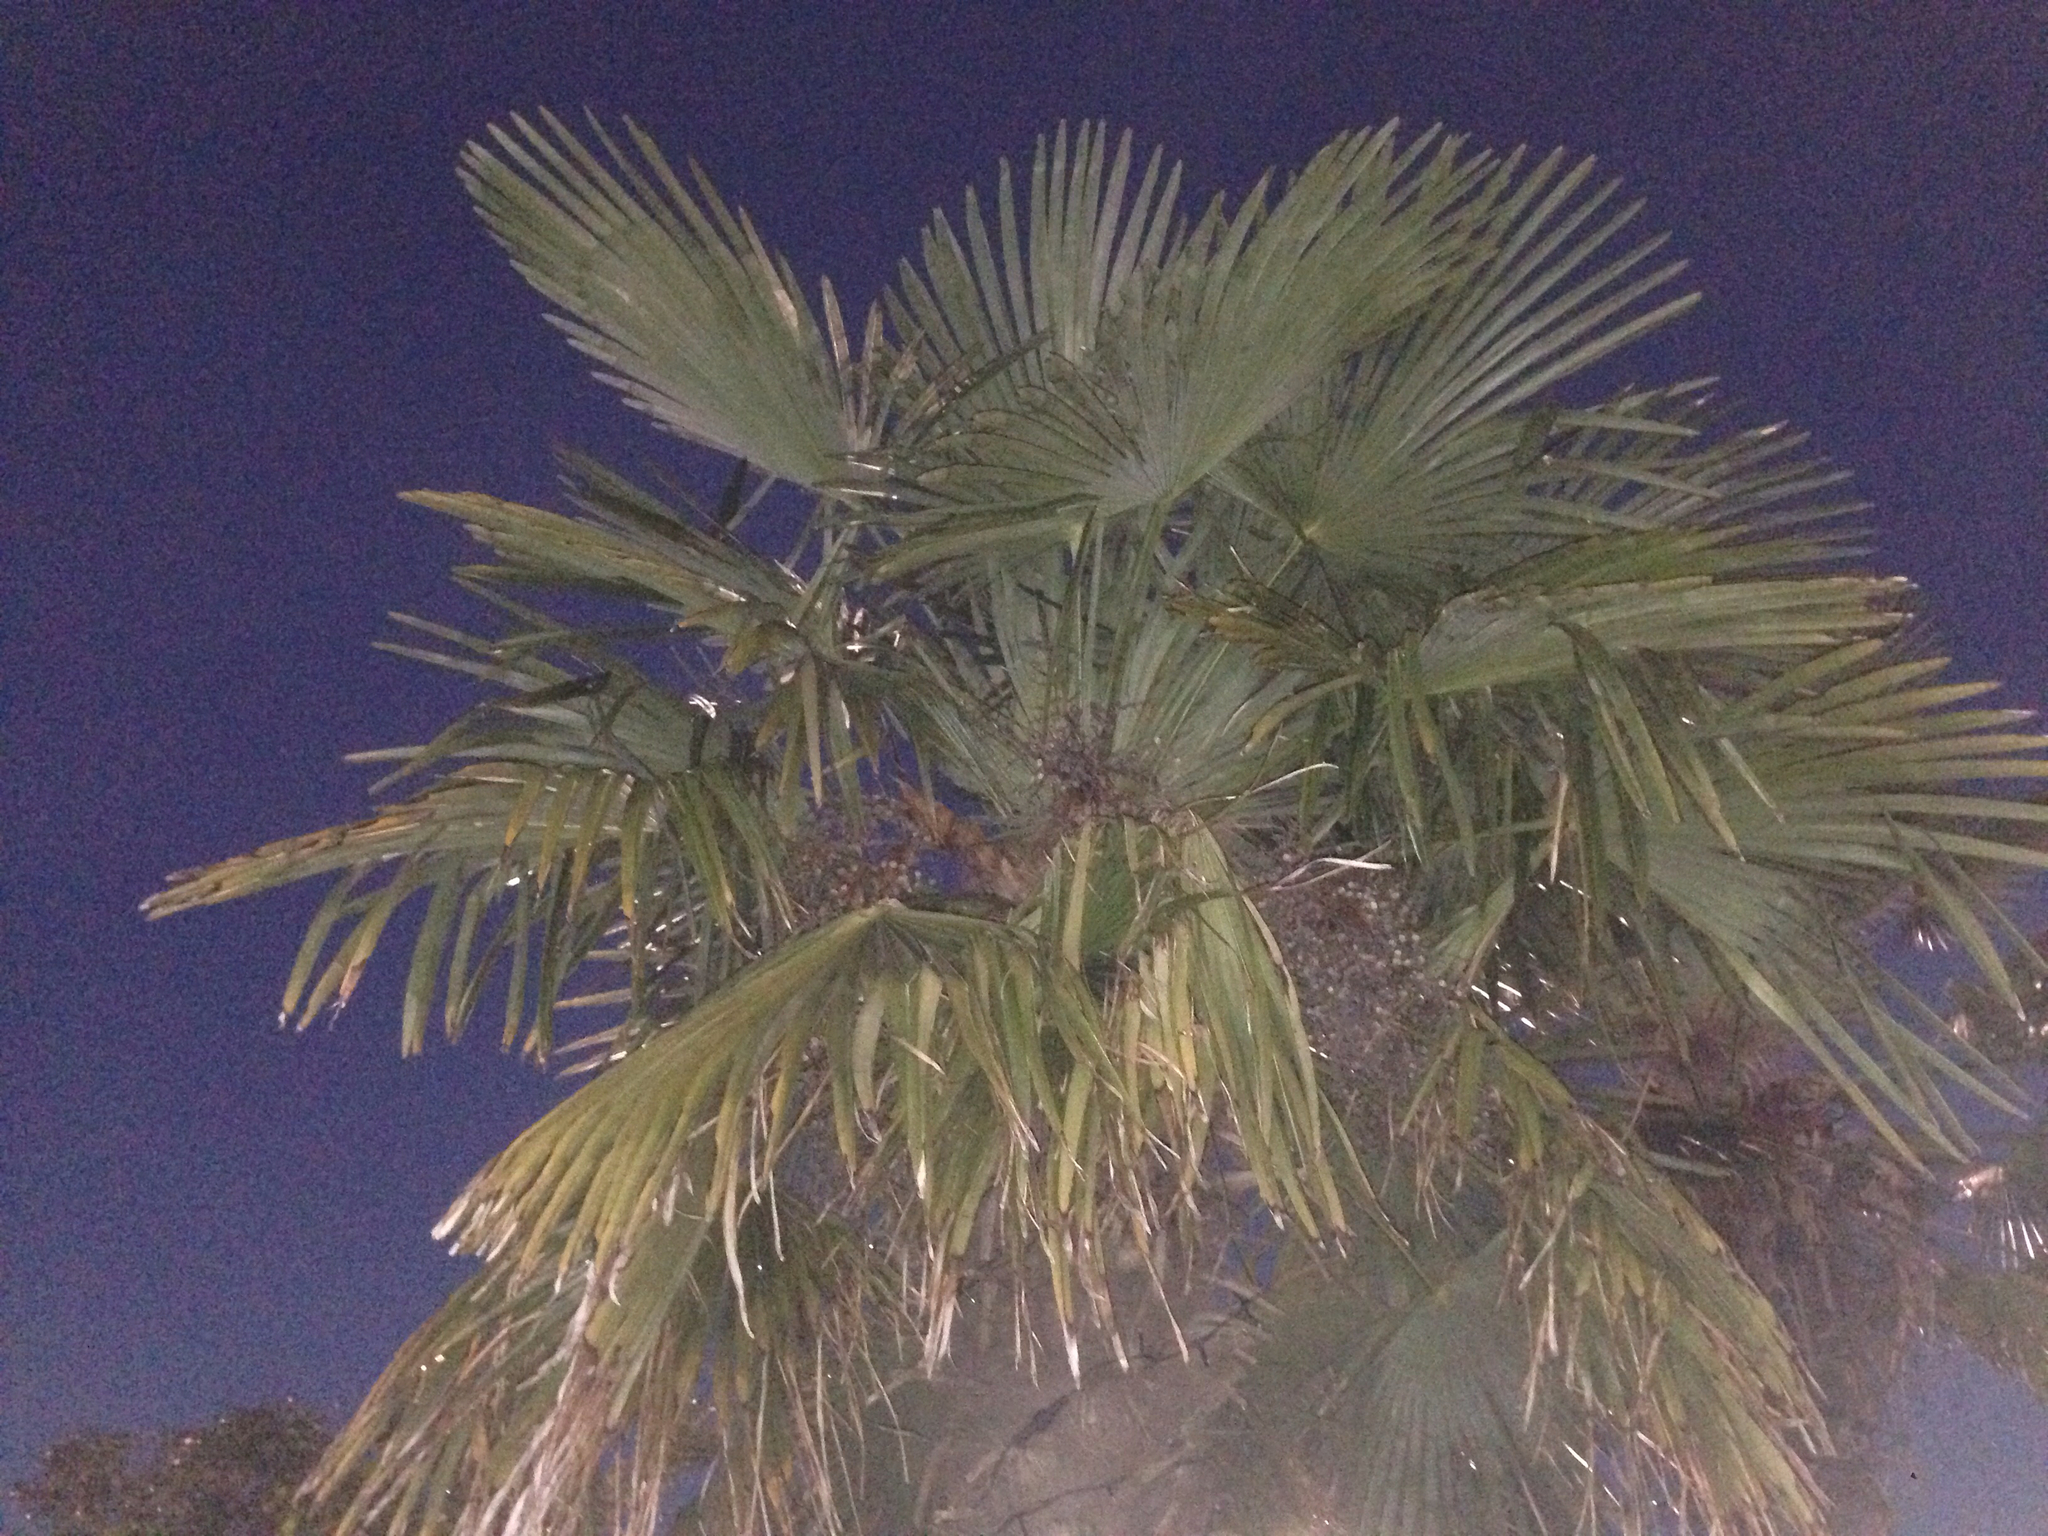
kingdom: Plantae
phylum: Tracheophyta
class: Liliopsida
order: Arecales
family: Arecaceae
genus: Trachycarpus
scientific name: Trachycarpus fortunei
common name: Chusan palm
